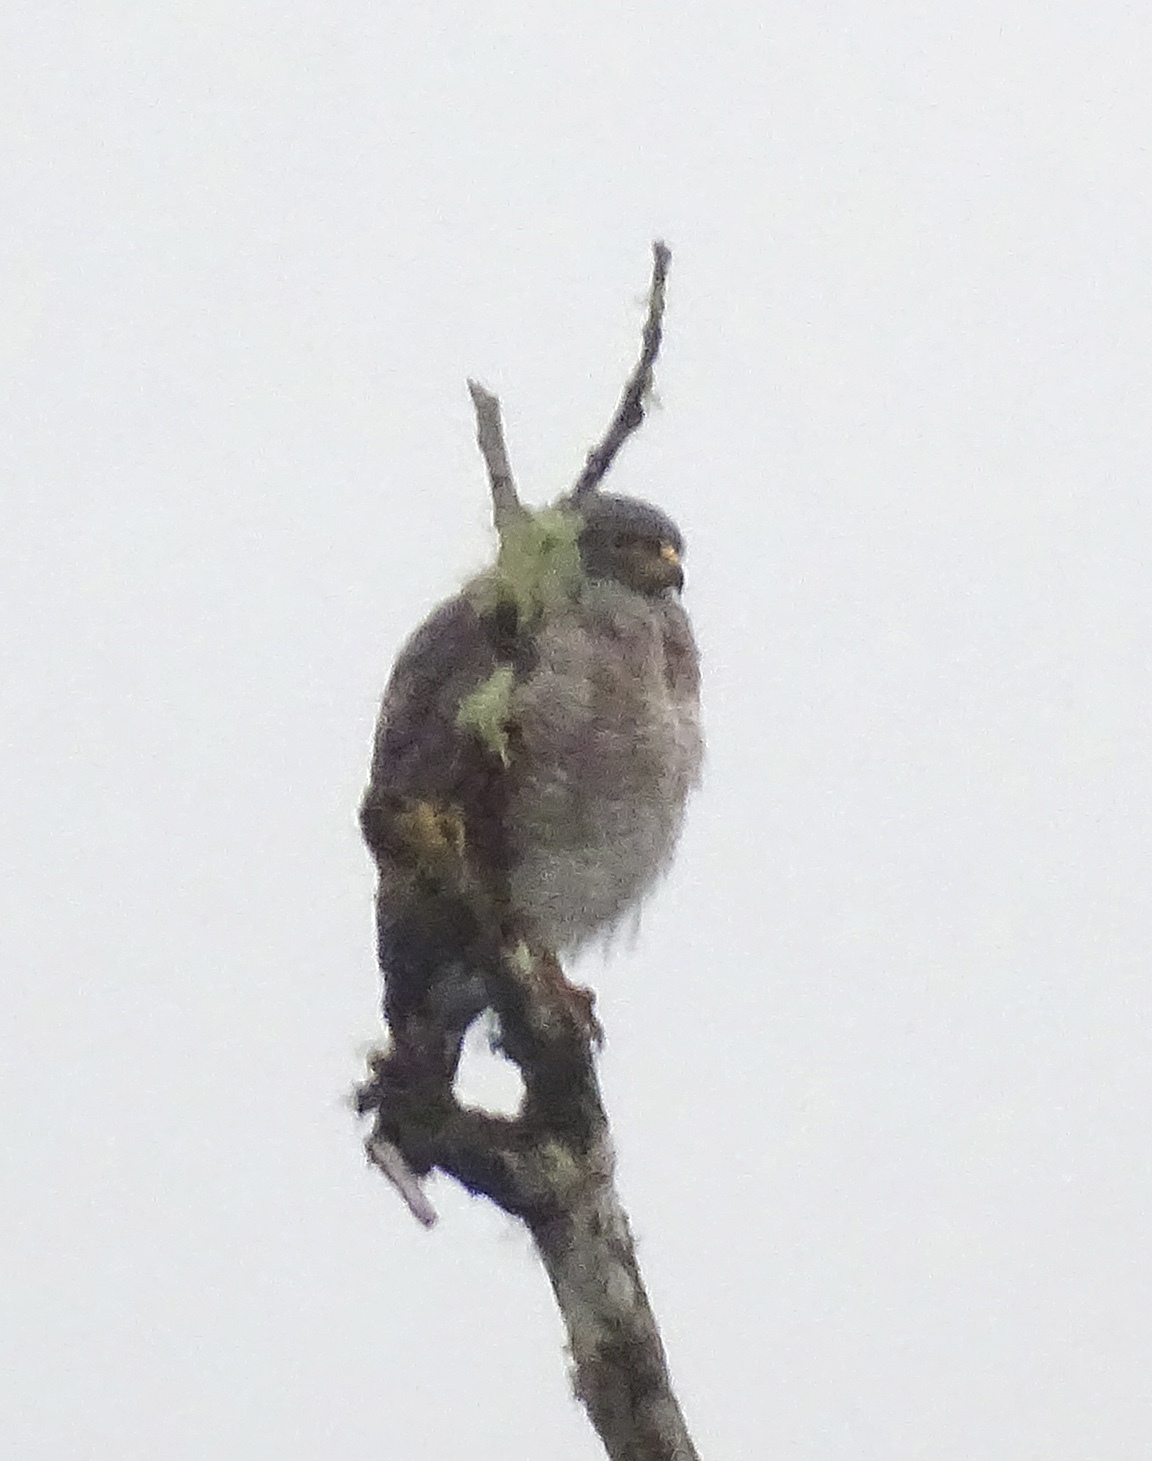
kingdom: Animalia
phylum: Chordata
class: Aves
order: Accipitriformes
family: Accipitridae
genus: Rupornis
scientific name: Rupornis magnirostris
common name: Roadside hawk
